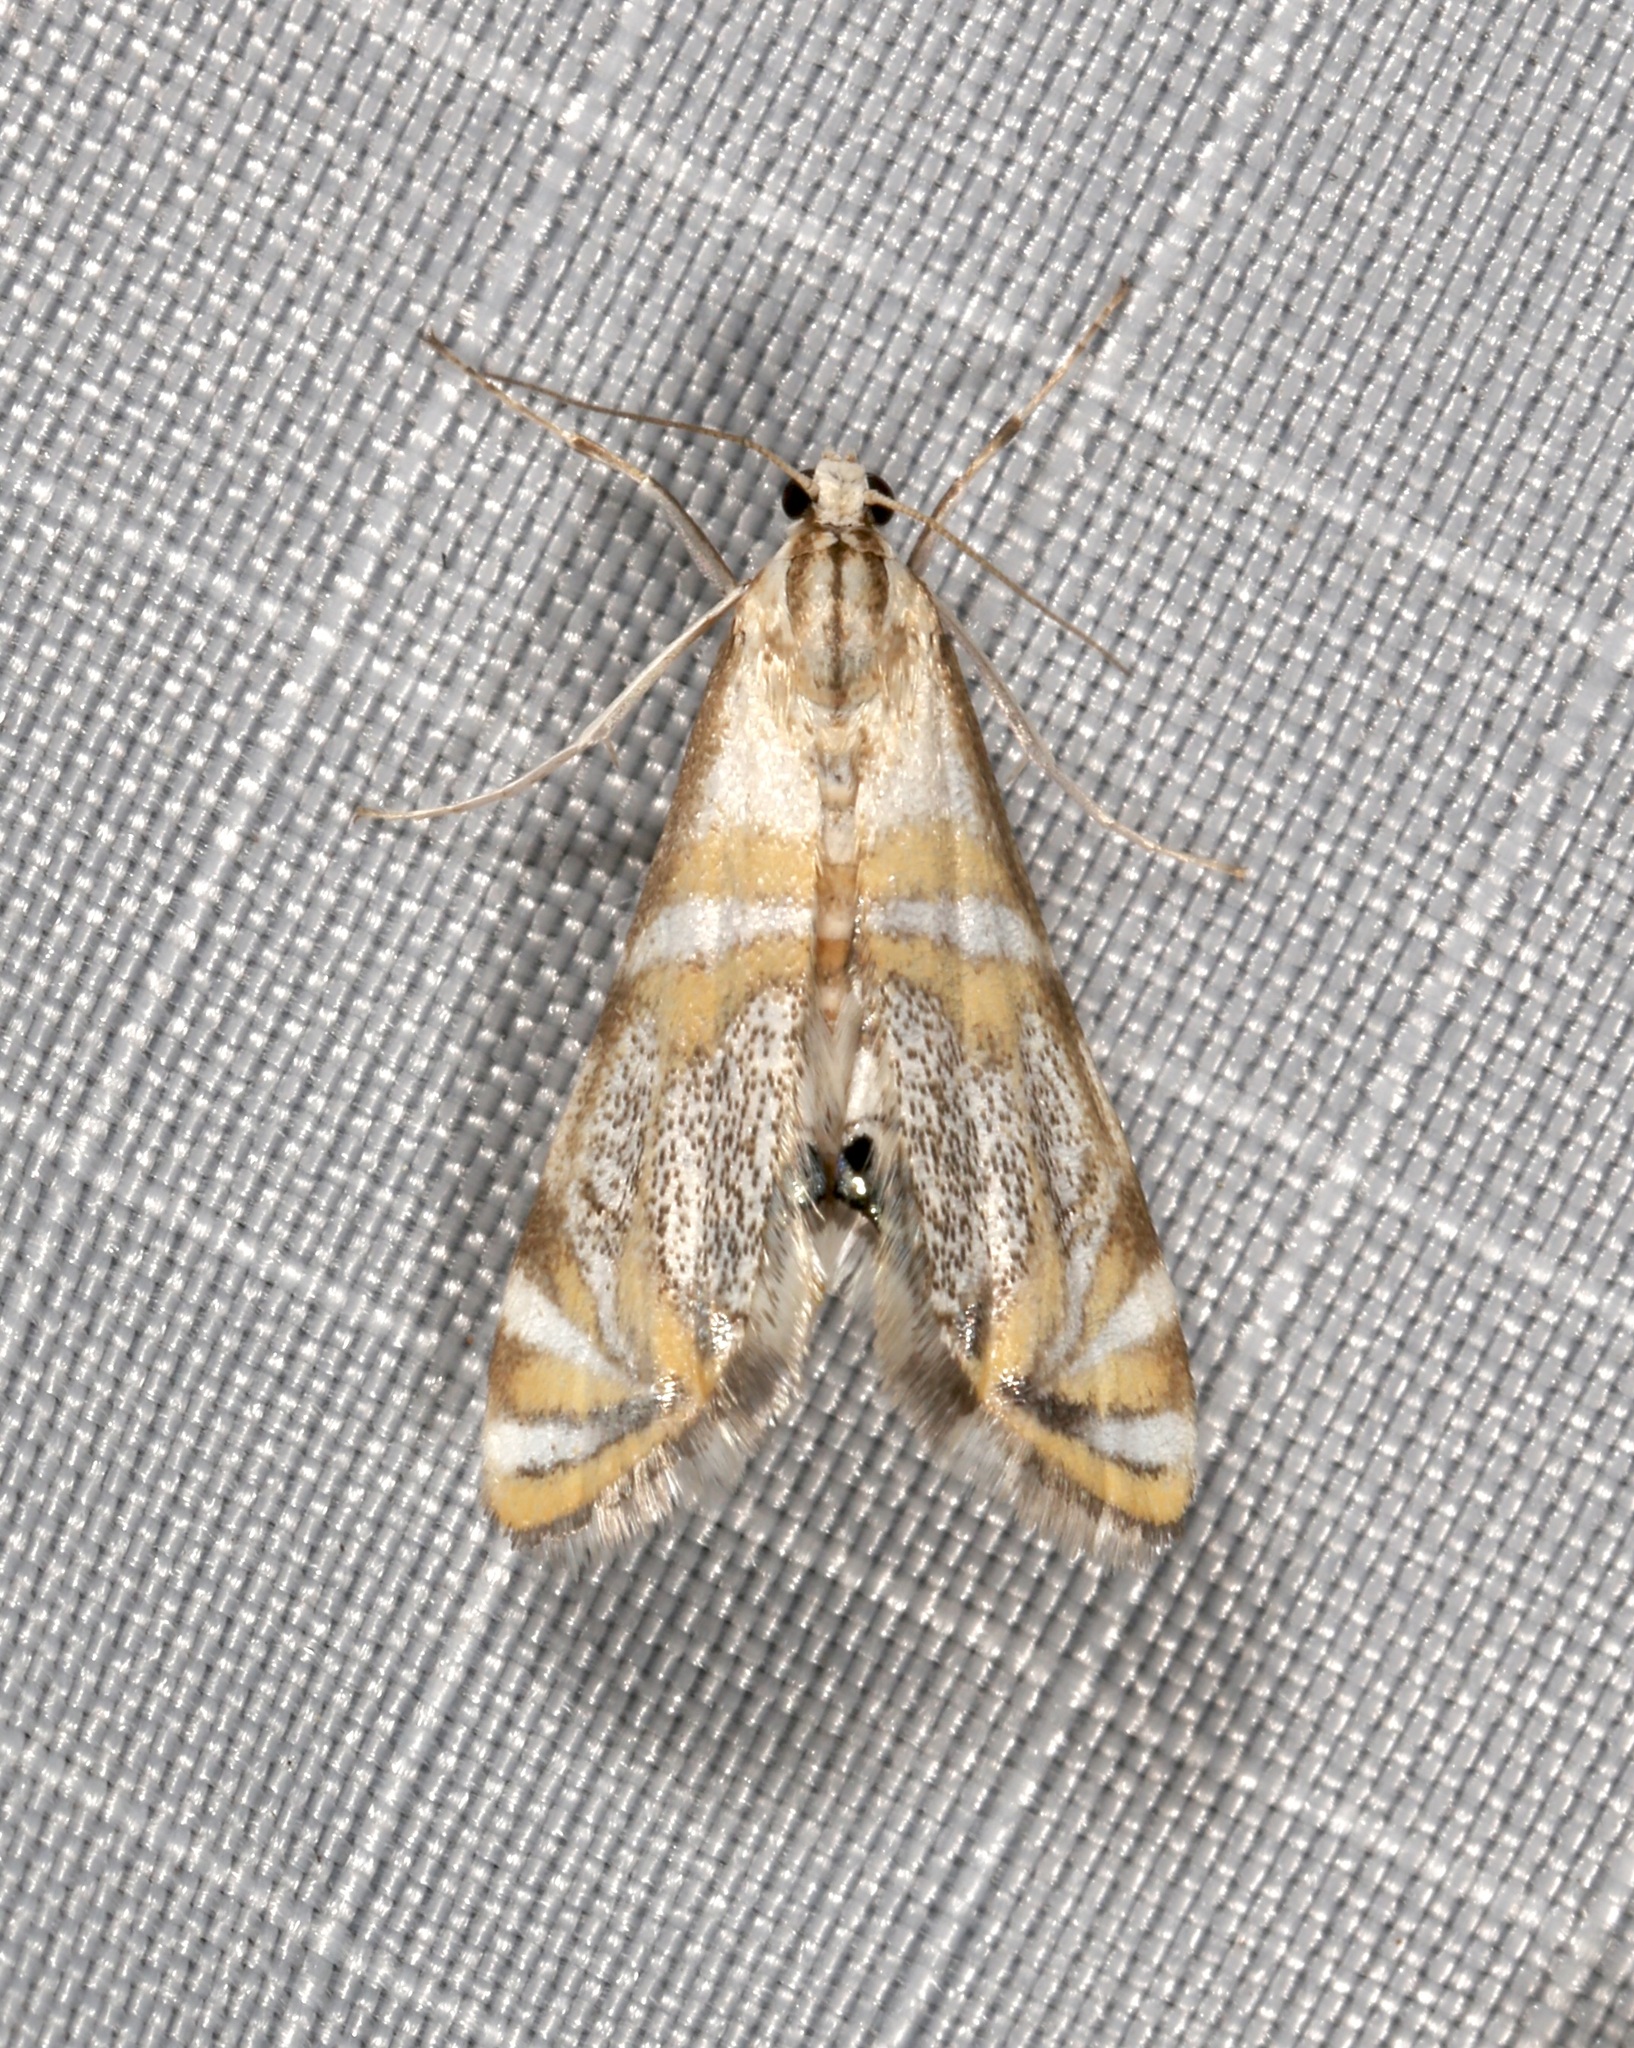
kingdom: Animalia
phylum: Arthropoda
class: Insecta
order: Lepidoptera
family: Crambidae
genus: Petrophila
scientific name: Petrophila kearfottalis
